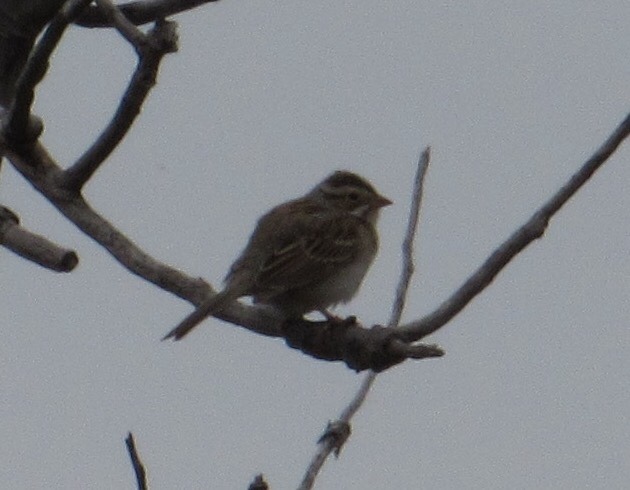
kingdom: Animalia
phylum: Chordata
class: Aves
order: Passeriformes
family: Passerellidae
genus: Spizella
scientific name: Spizella pallida
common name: Clay-colored sparrow
